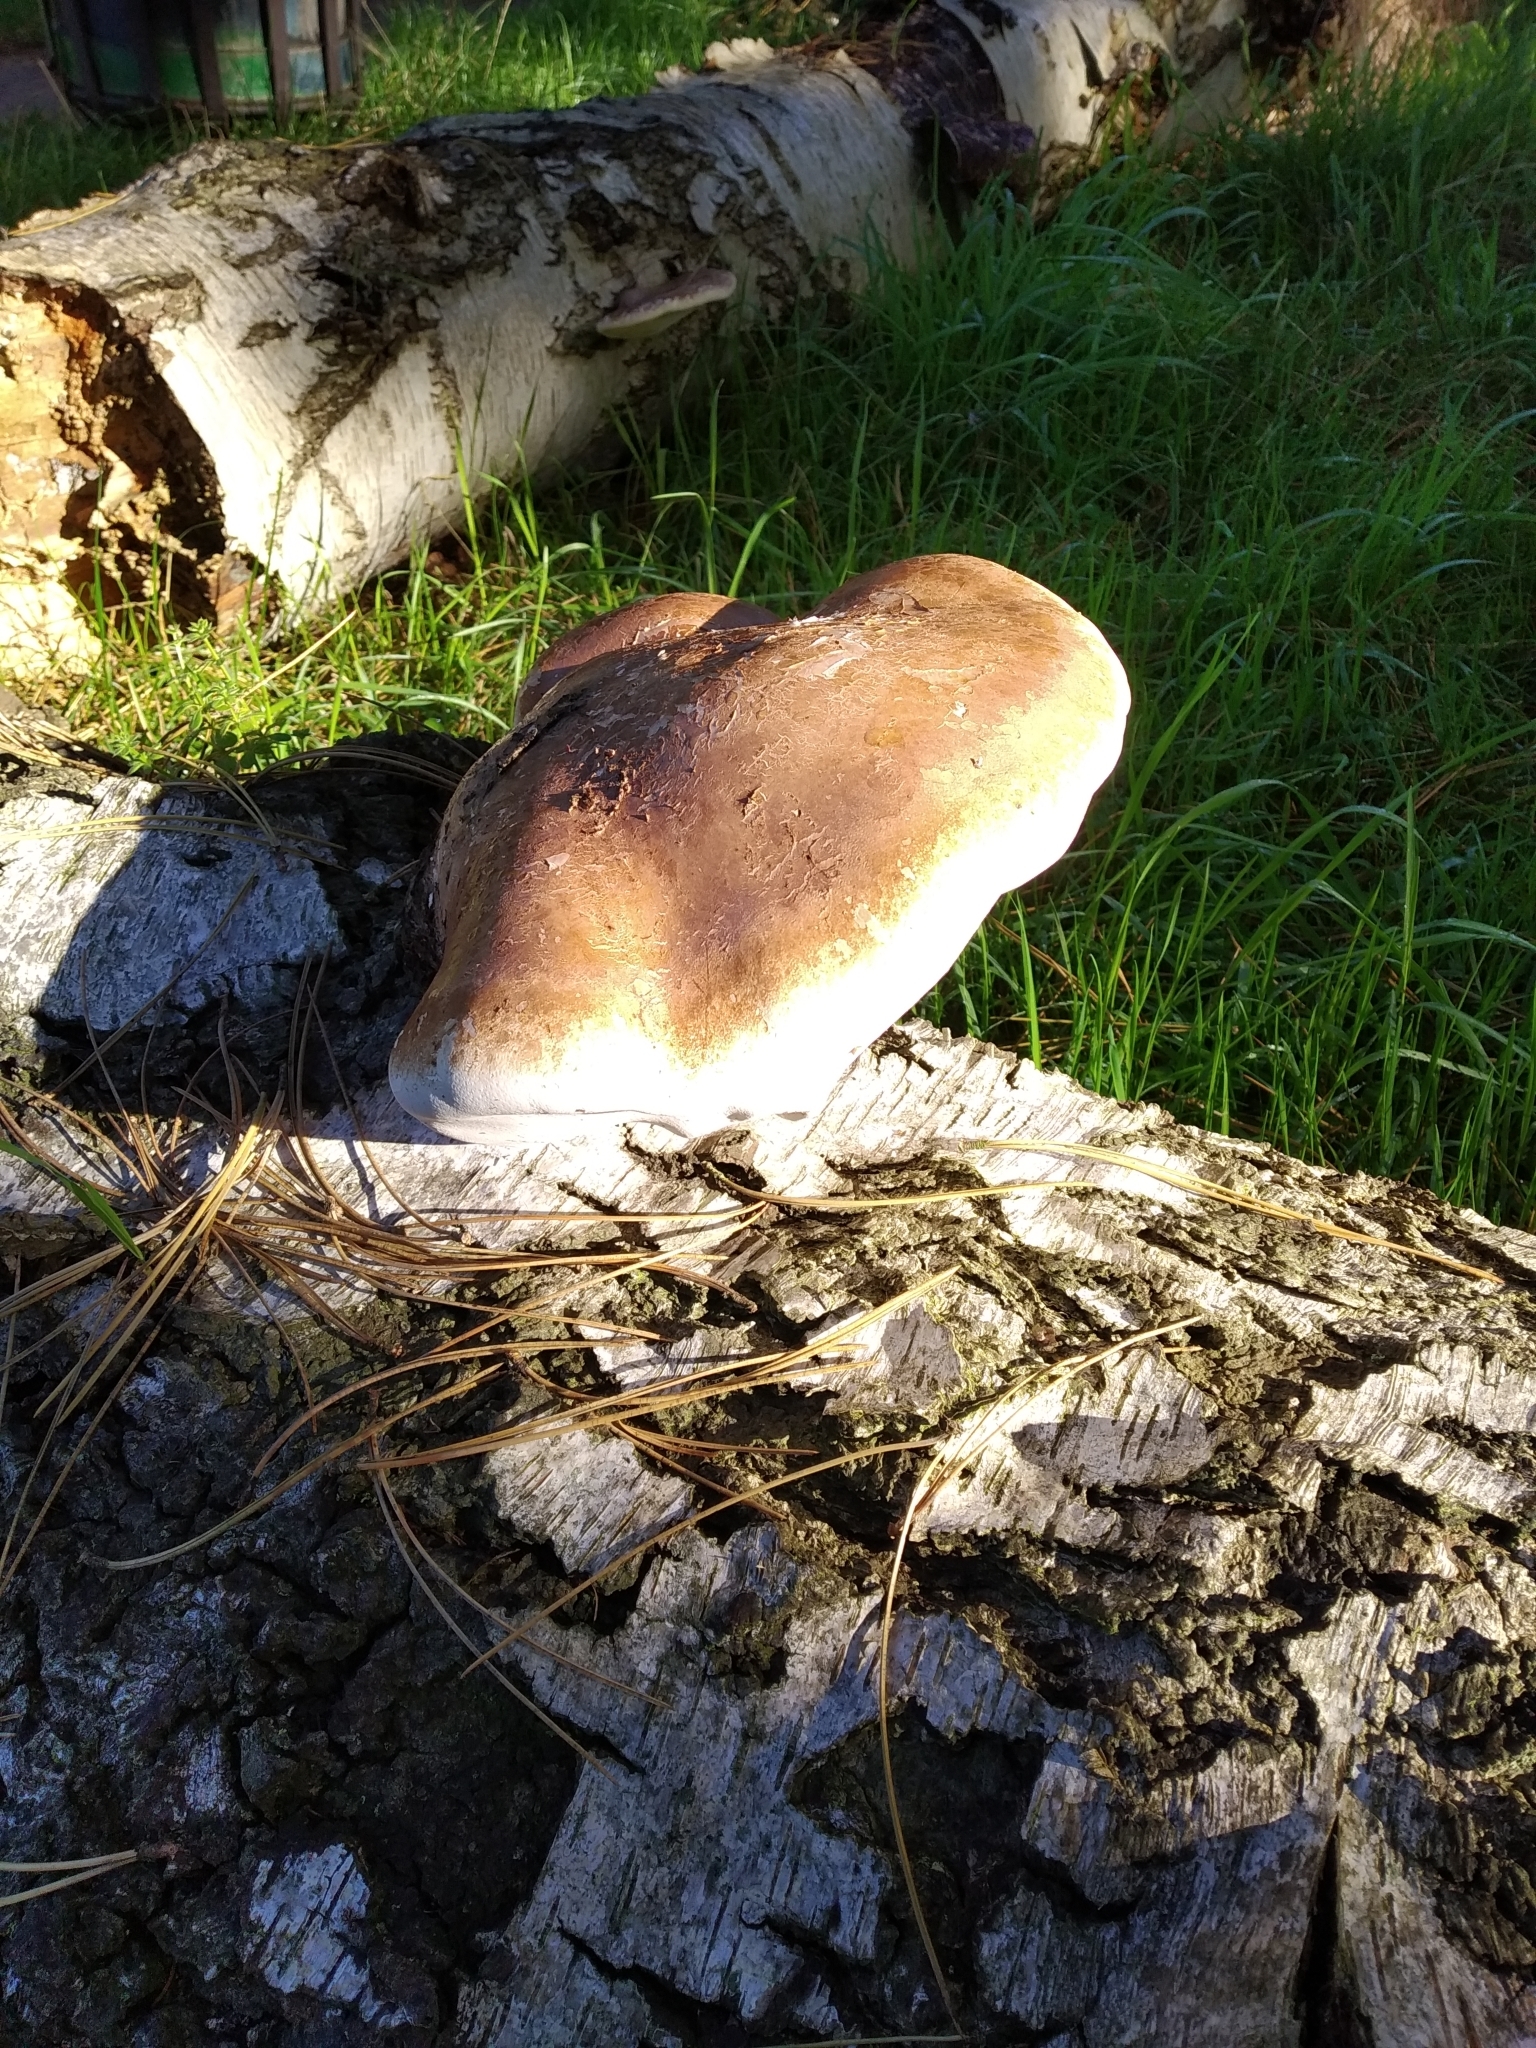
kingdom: Fungi
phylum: Basidiomycota
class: Agaricomycetes
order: Polyporales
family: Fomitopsidaceae
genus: Fomitopsis
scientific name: Fomitopsis betulina
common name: Birch polypore
